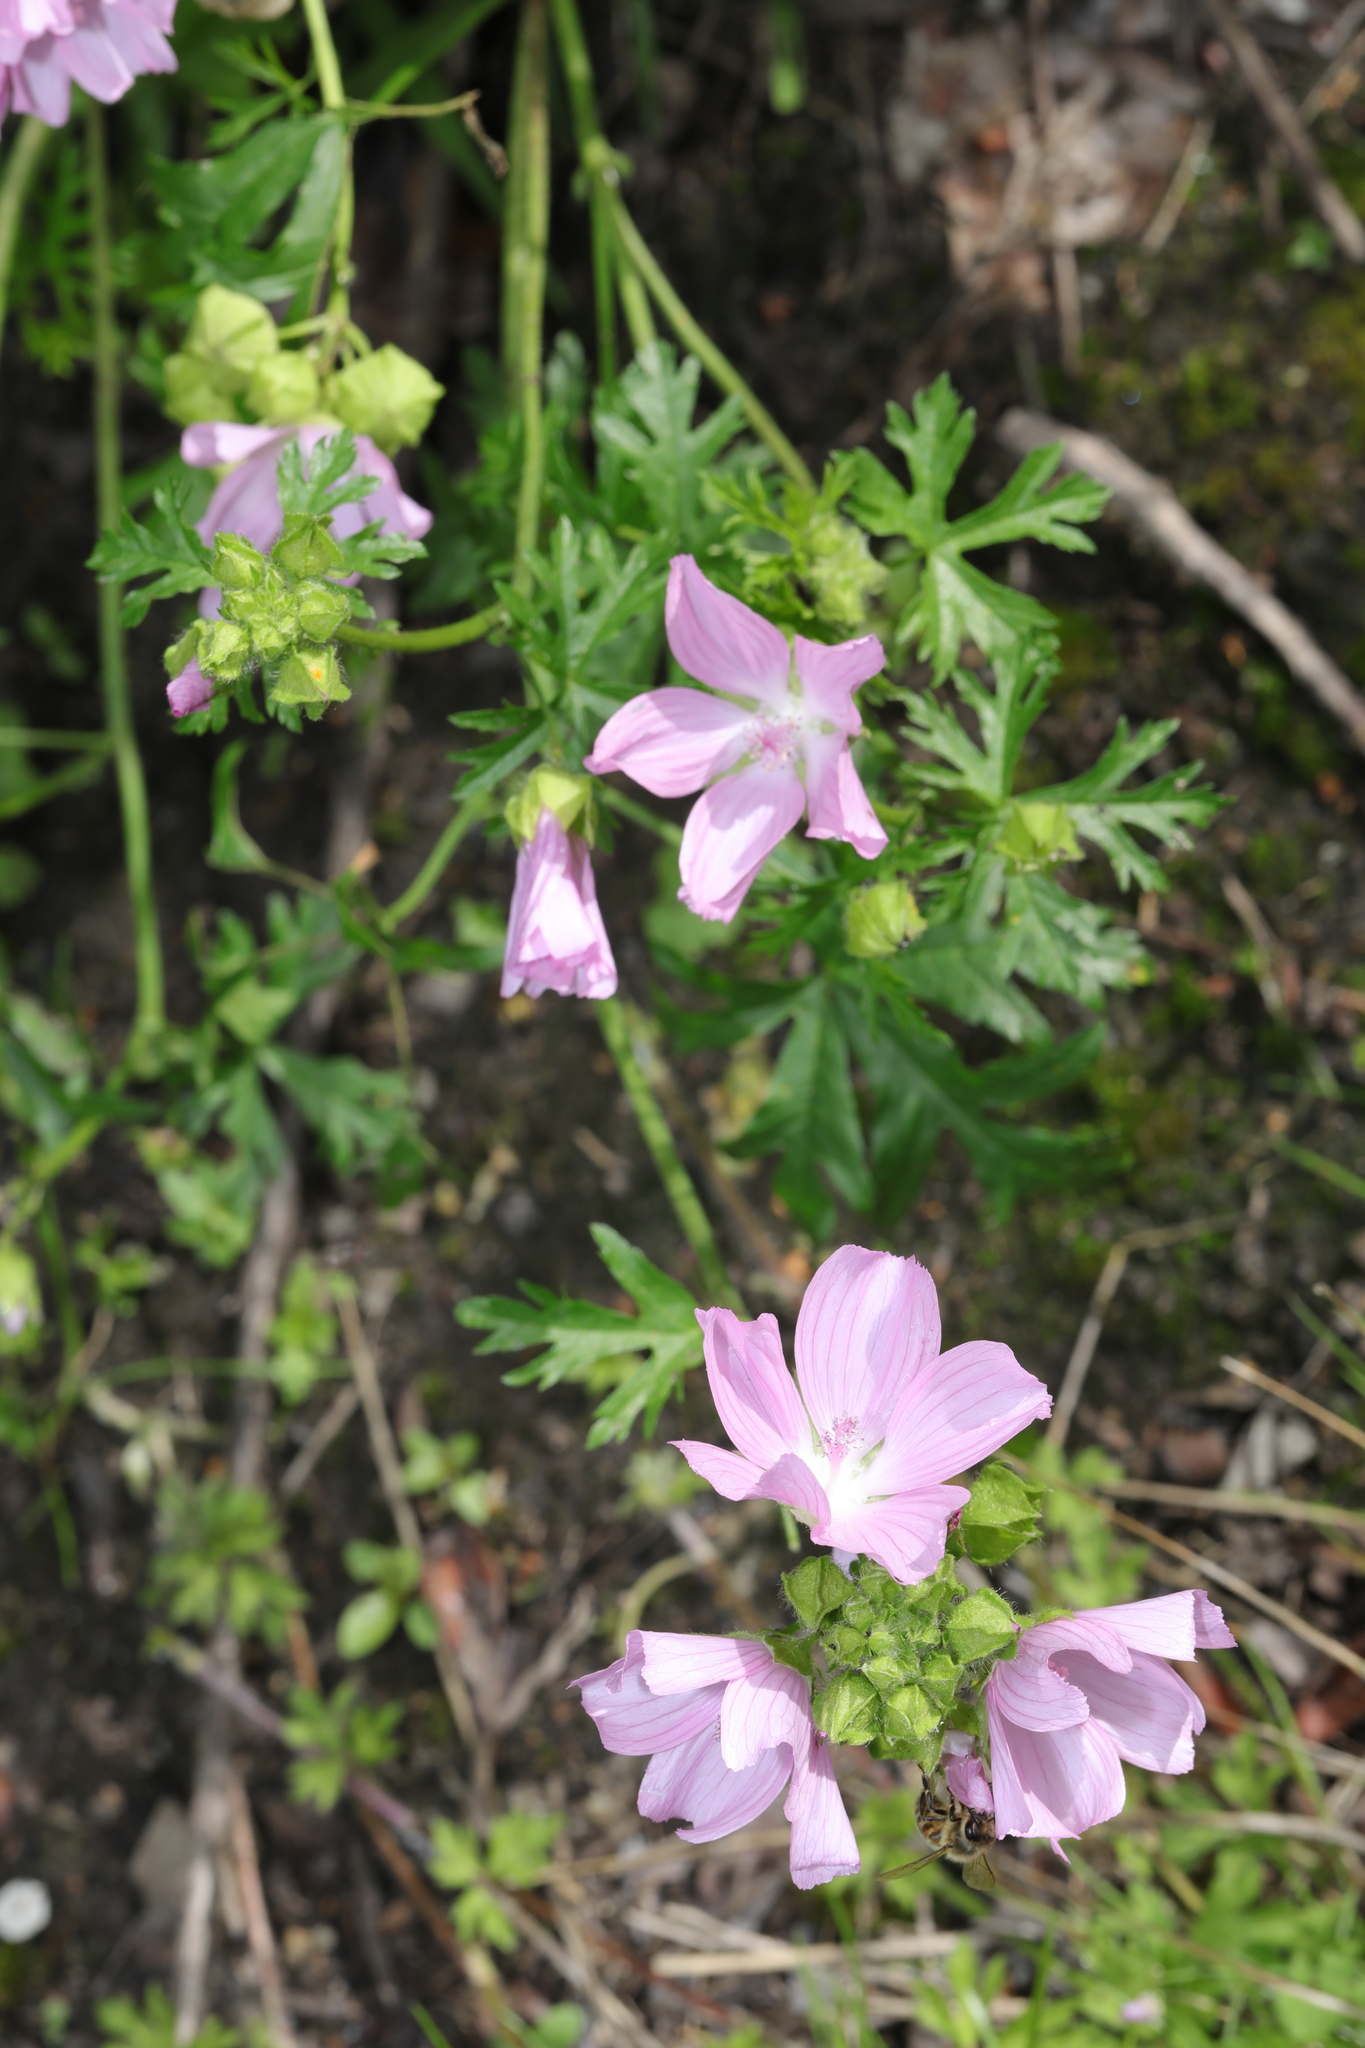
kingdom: Plantae
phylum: Tracheophyta
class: Magnoliopsida
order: Malvales
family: Malvaceae
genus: Malva
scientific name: Malva moschata
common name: Musk mallow
